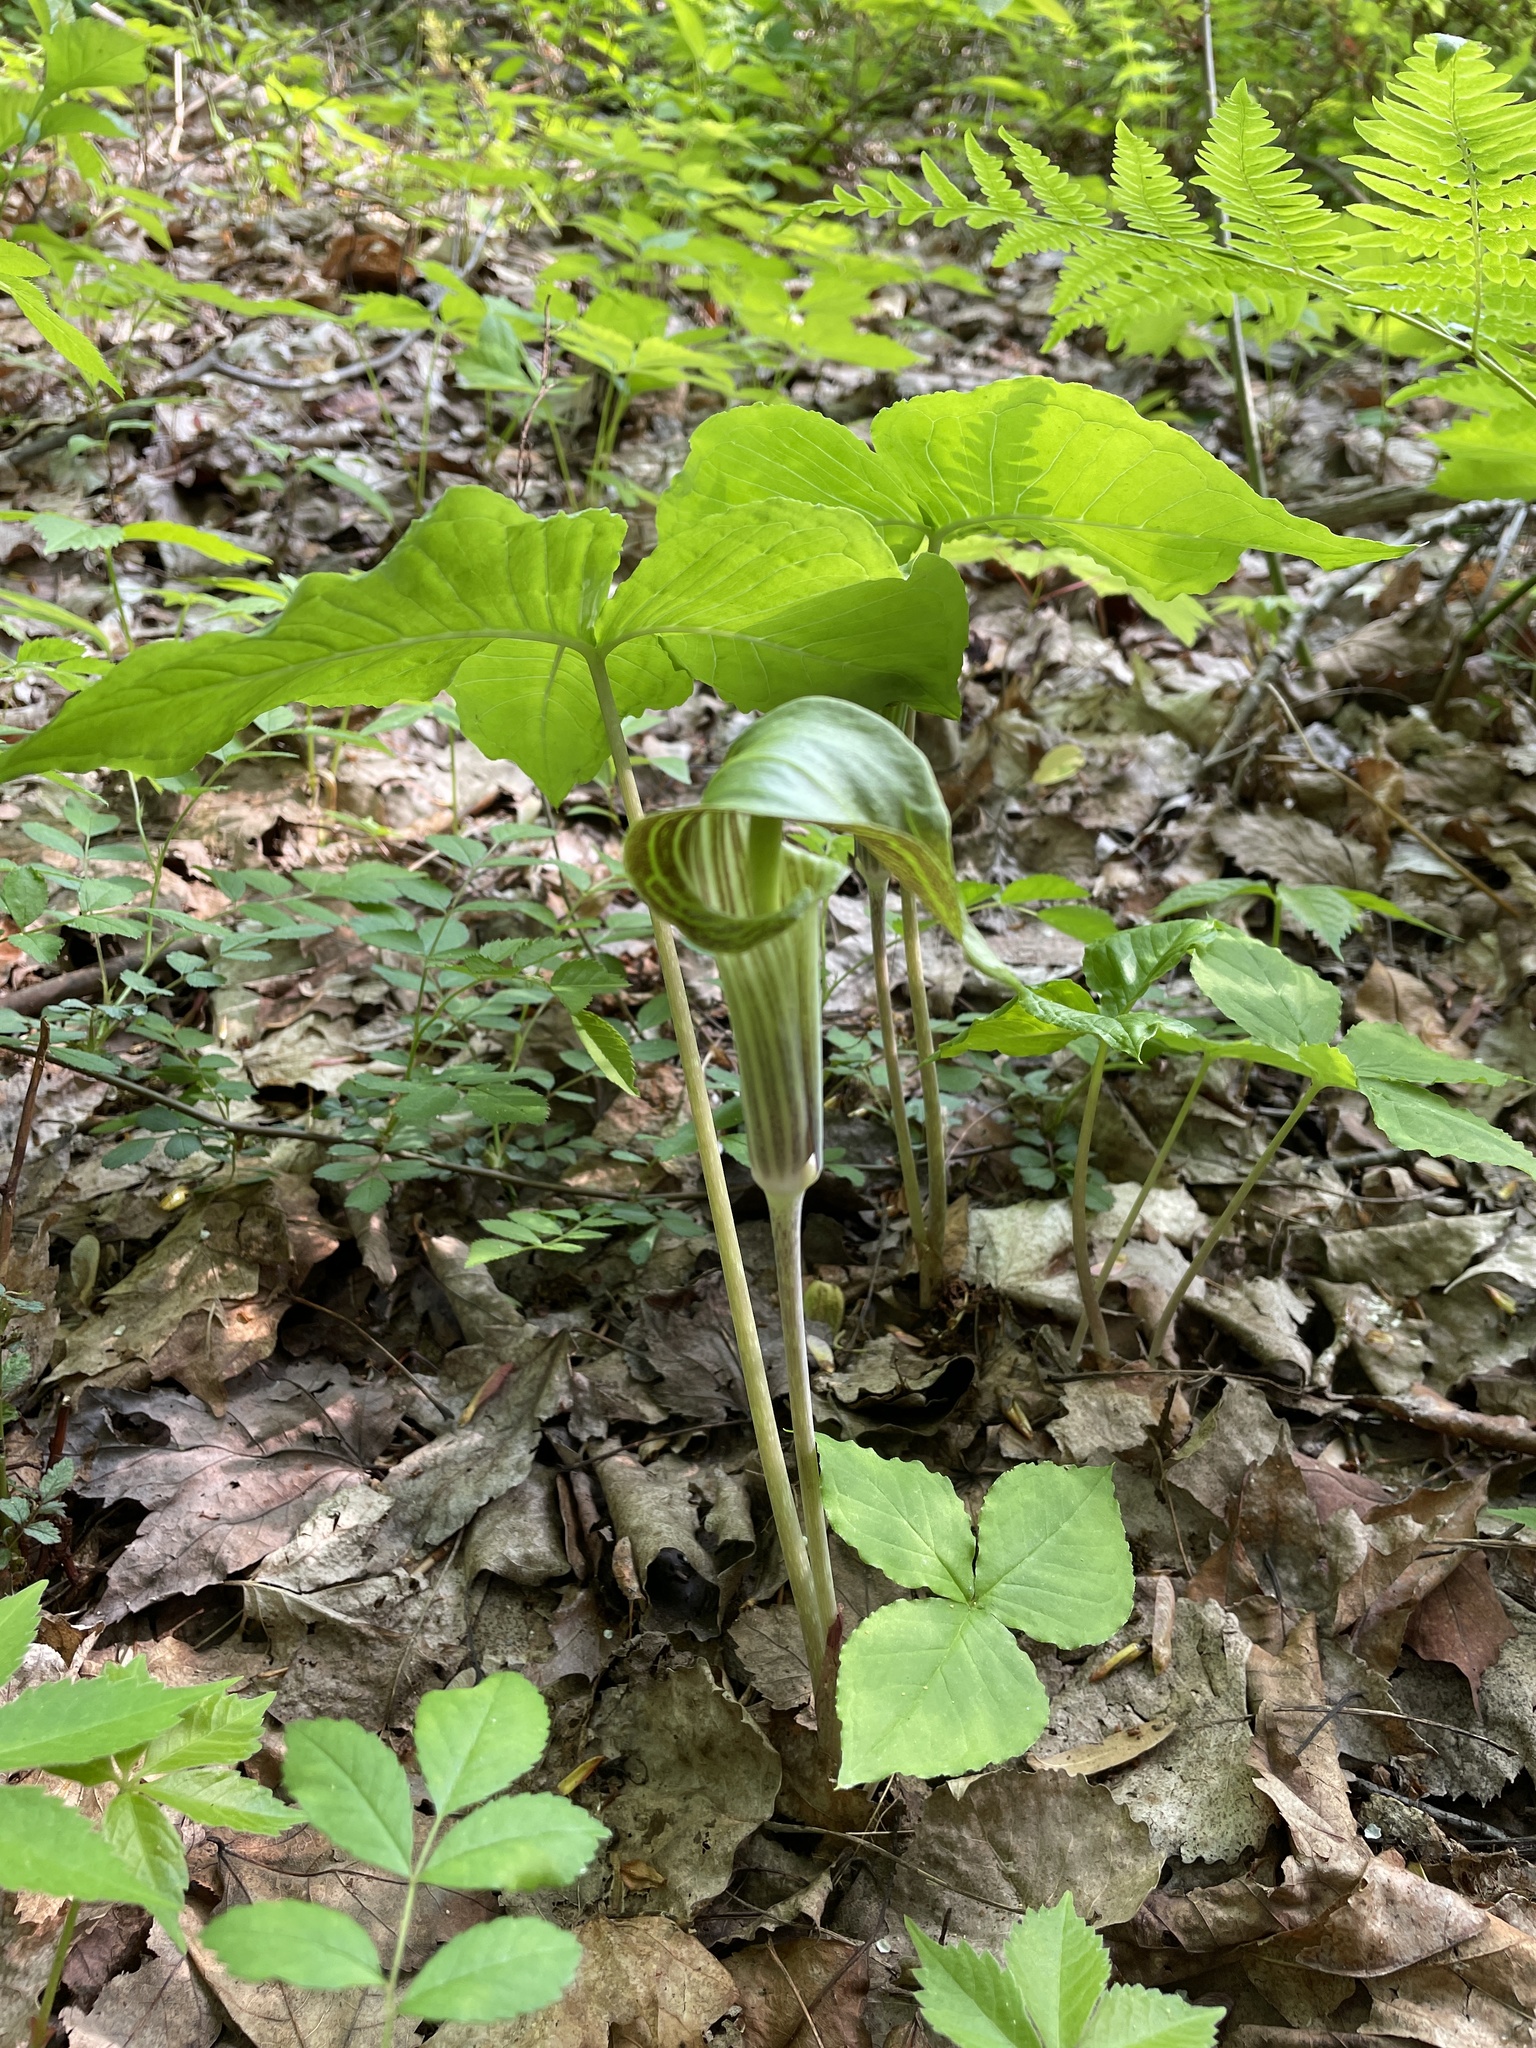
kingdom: Plantae
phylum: Tracheophyta
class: Liliopsida
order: Alismatales
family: Araceae
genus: Arisaema
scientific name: Arisaema triphyllum
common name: Jack-in-the-pulpit
